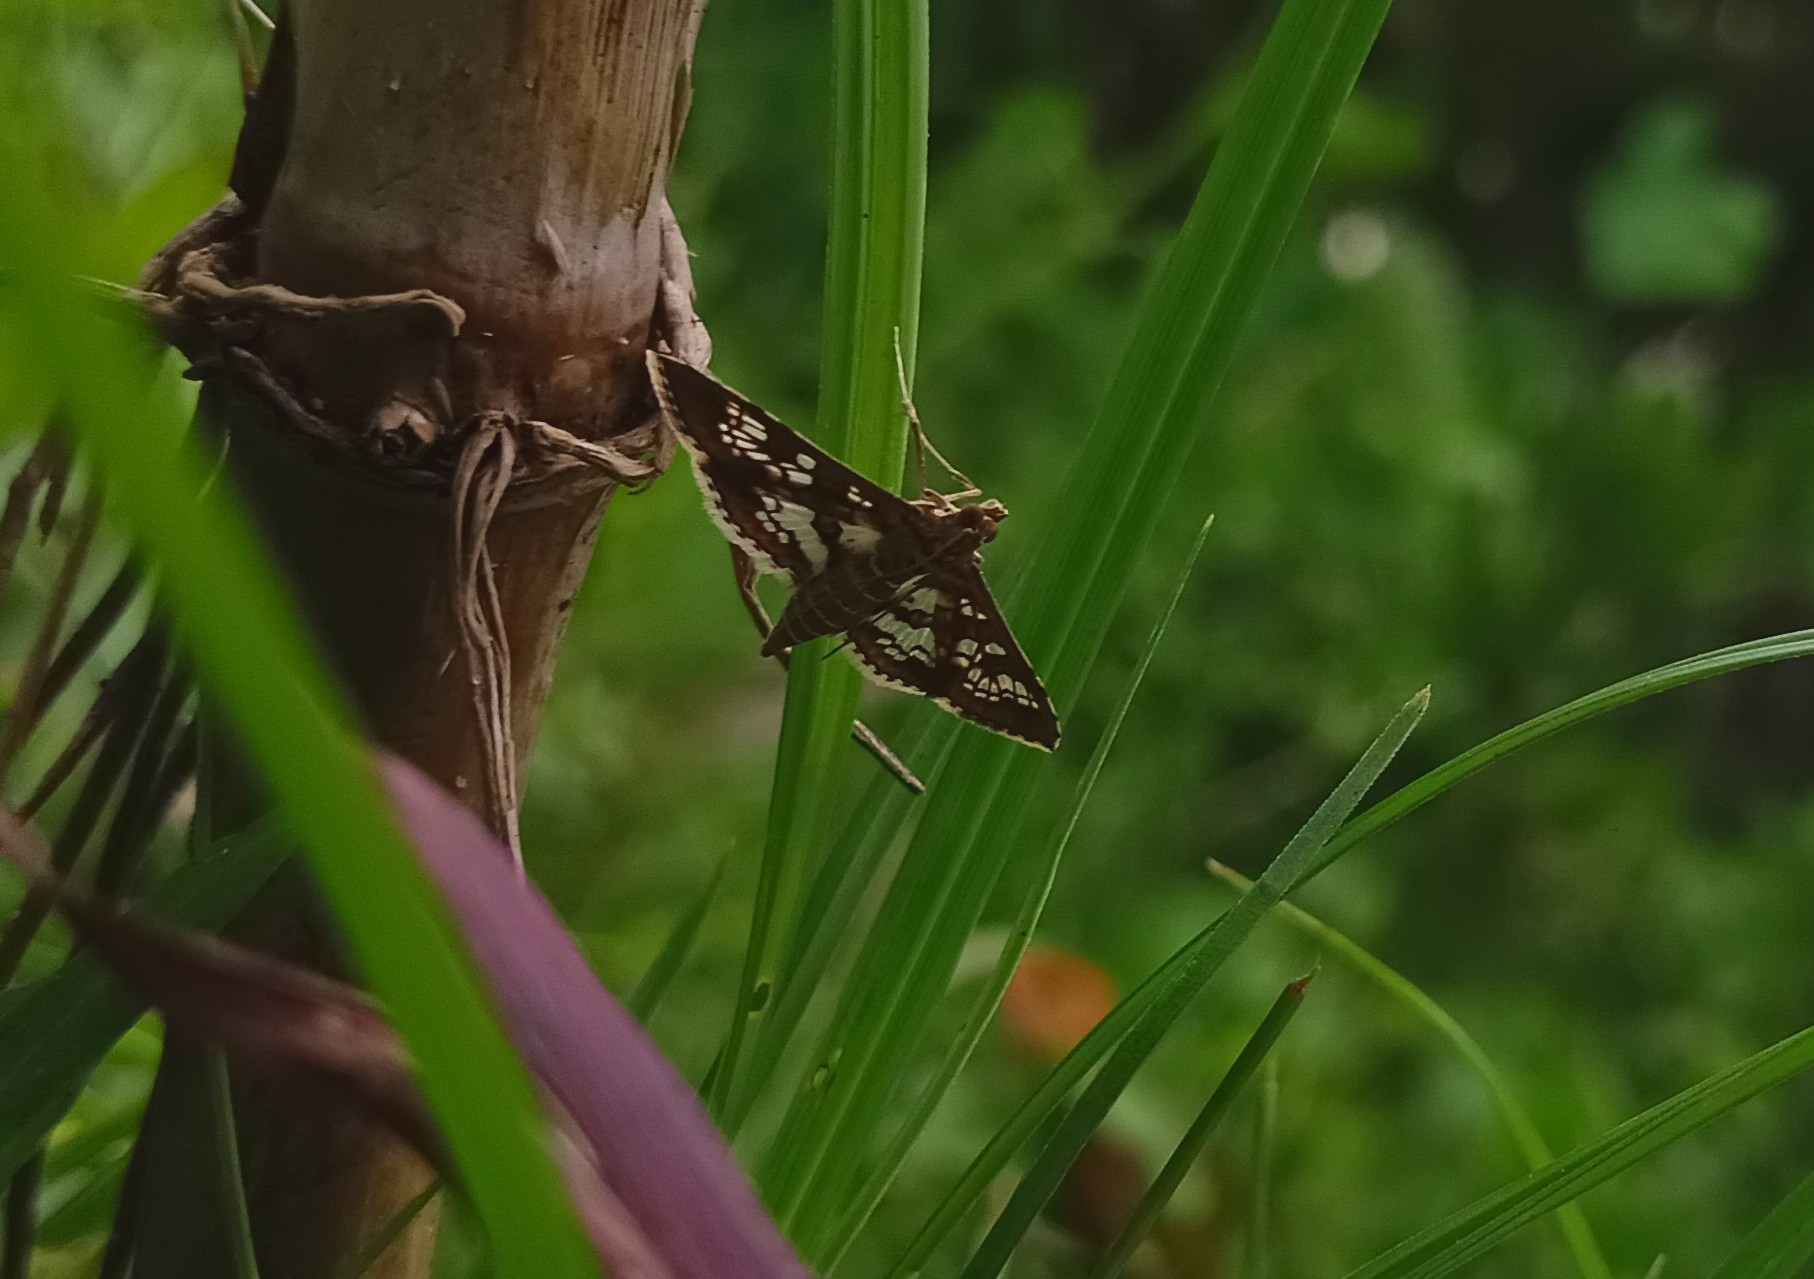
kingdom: Animalia
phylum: Arthropoda
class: Insecta
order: Lepidoptera
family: Crambidae
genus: Sameodes
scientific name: Sameodes cancellalis
